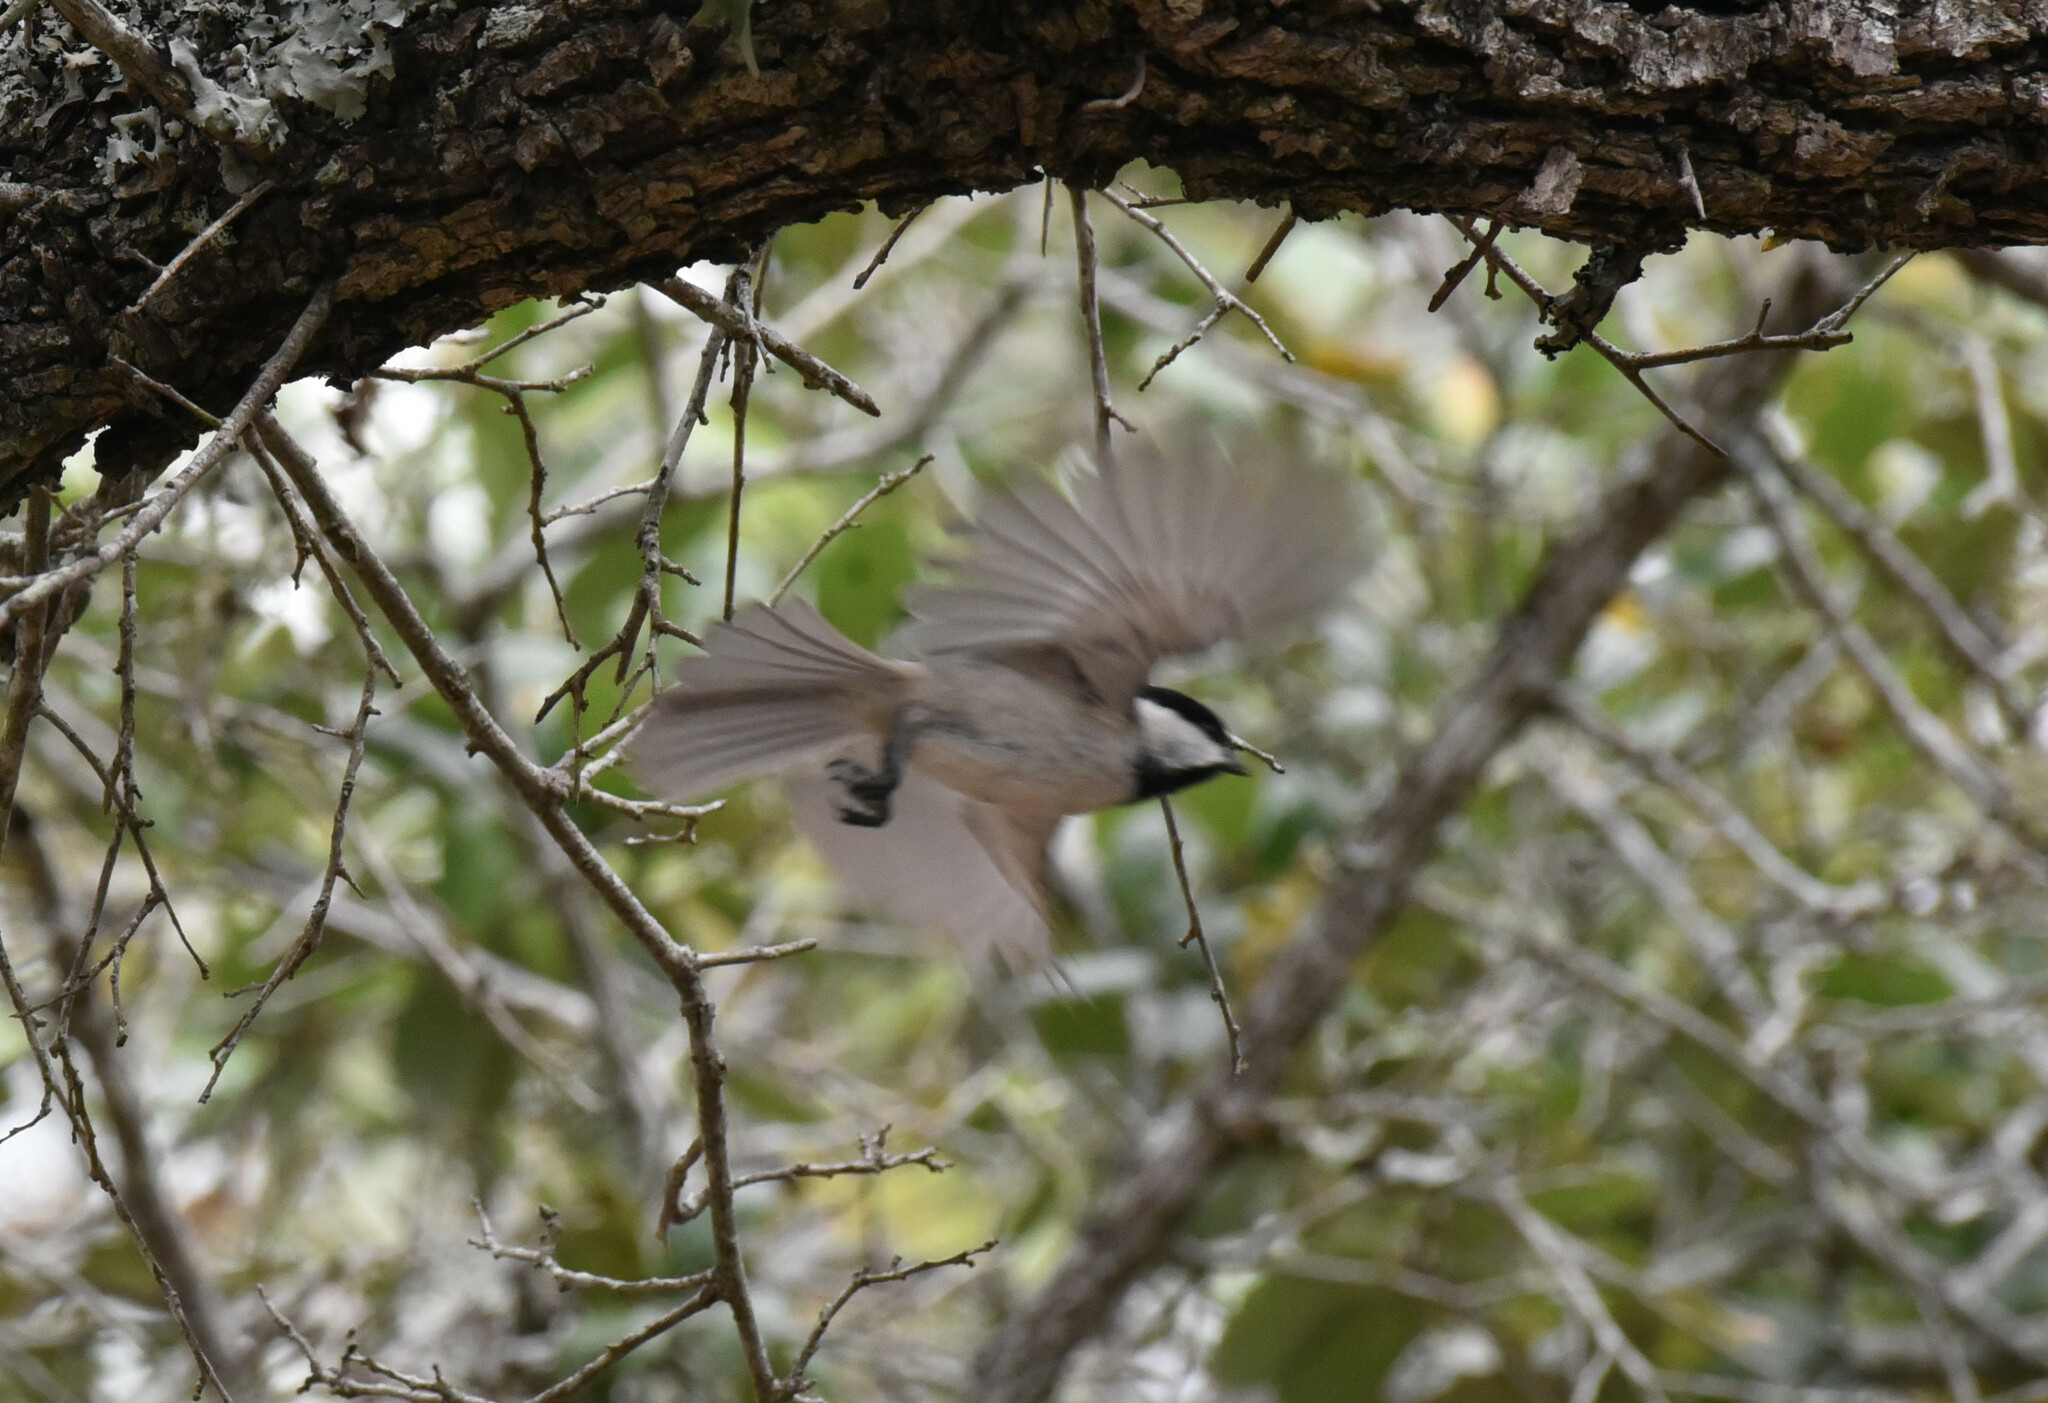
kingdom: Animalia
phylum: Chordata
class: Aves
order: Passeriformes
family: Paridae
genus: Poecile
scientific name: Poecile carolinensis
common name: Carolina chickadee
